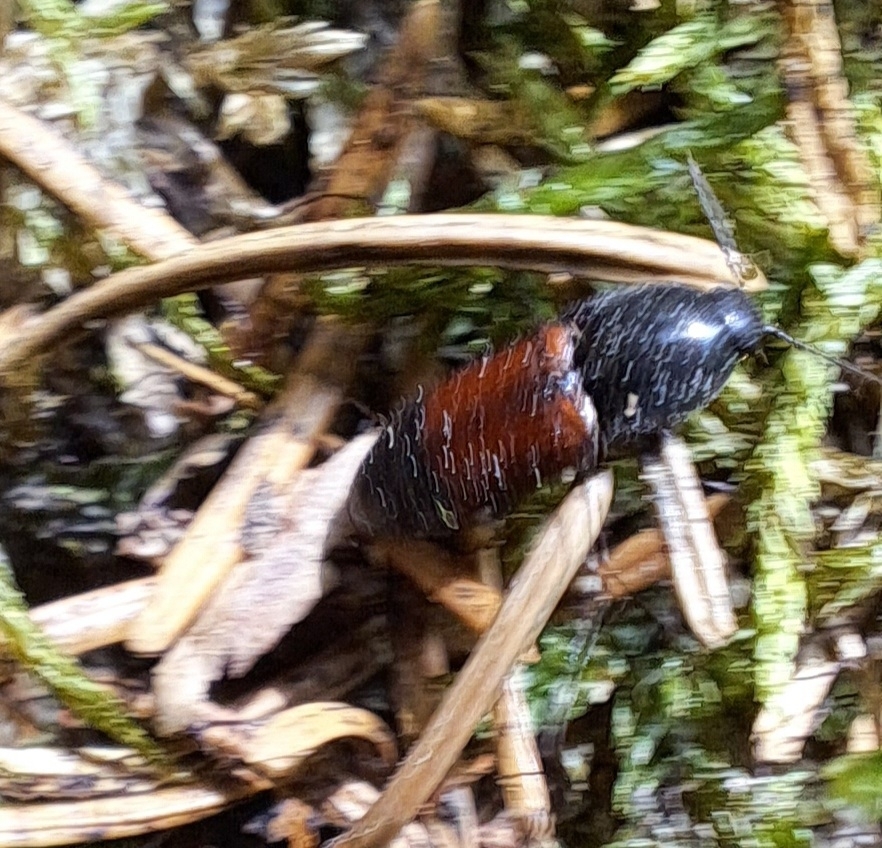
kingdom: Animalia
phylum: Arthropoda
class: Insecta
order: Coleoptera
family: Elateridae
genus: Ampedus
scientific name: Ampedus balteatus
